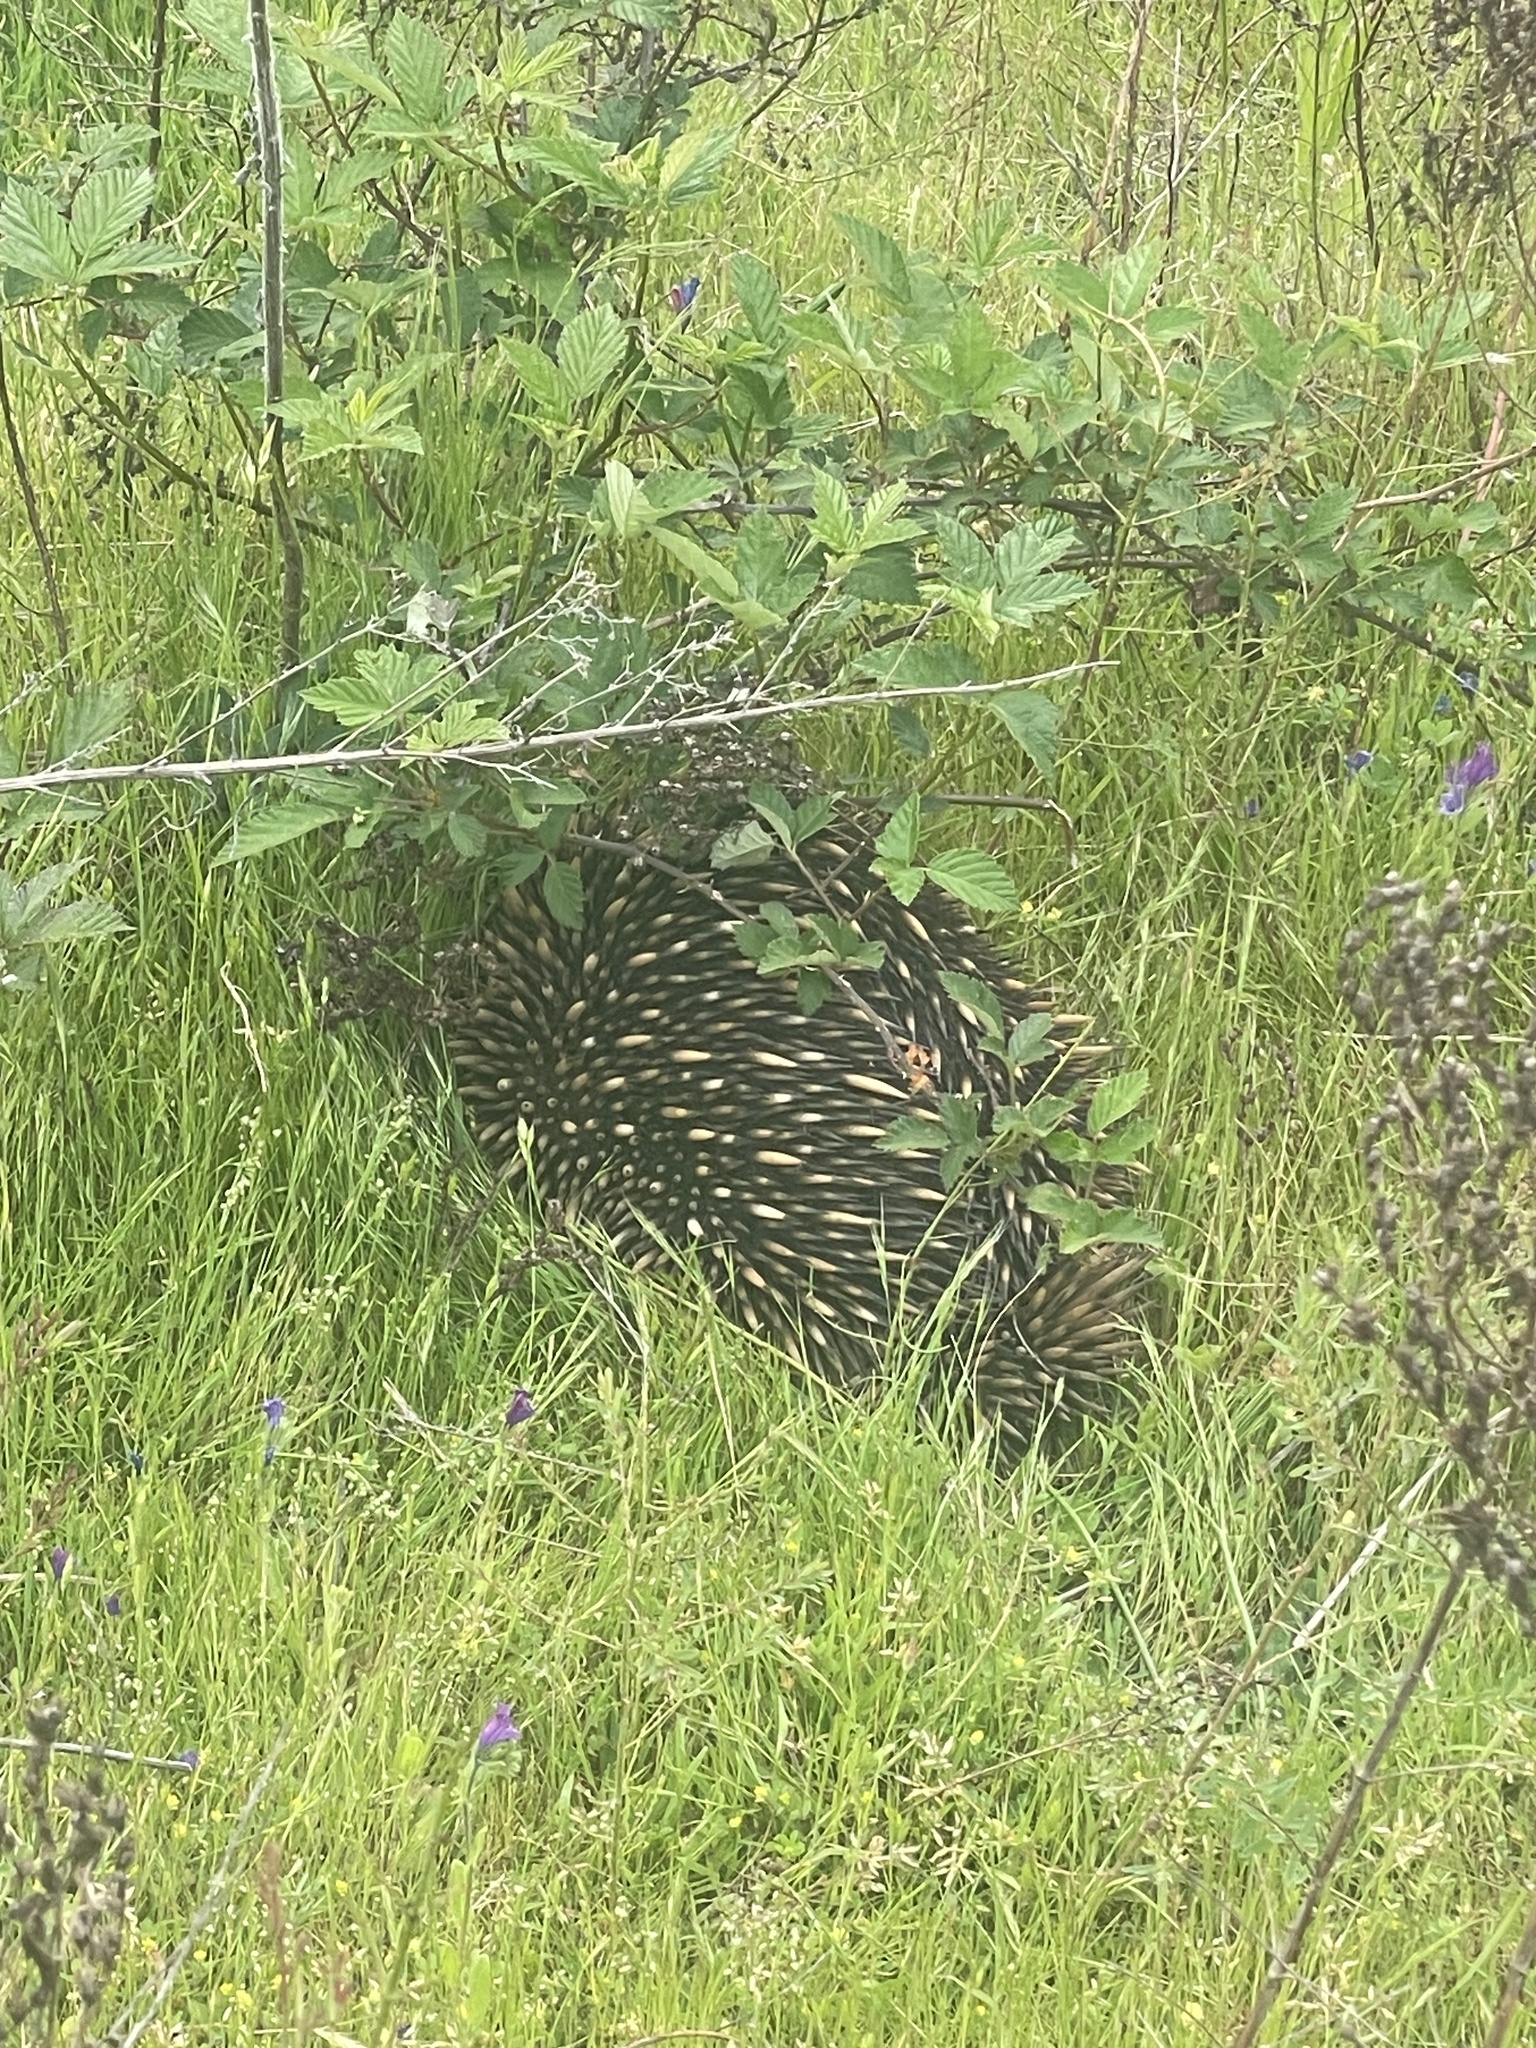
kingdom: Animalia
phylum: Chordata
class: Mammalia
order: Monotremata
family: Tachyglossidae
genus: Tachyglossus
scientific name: Tachyglossus aculeatus
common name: Short-beaked echidna
